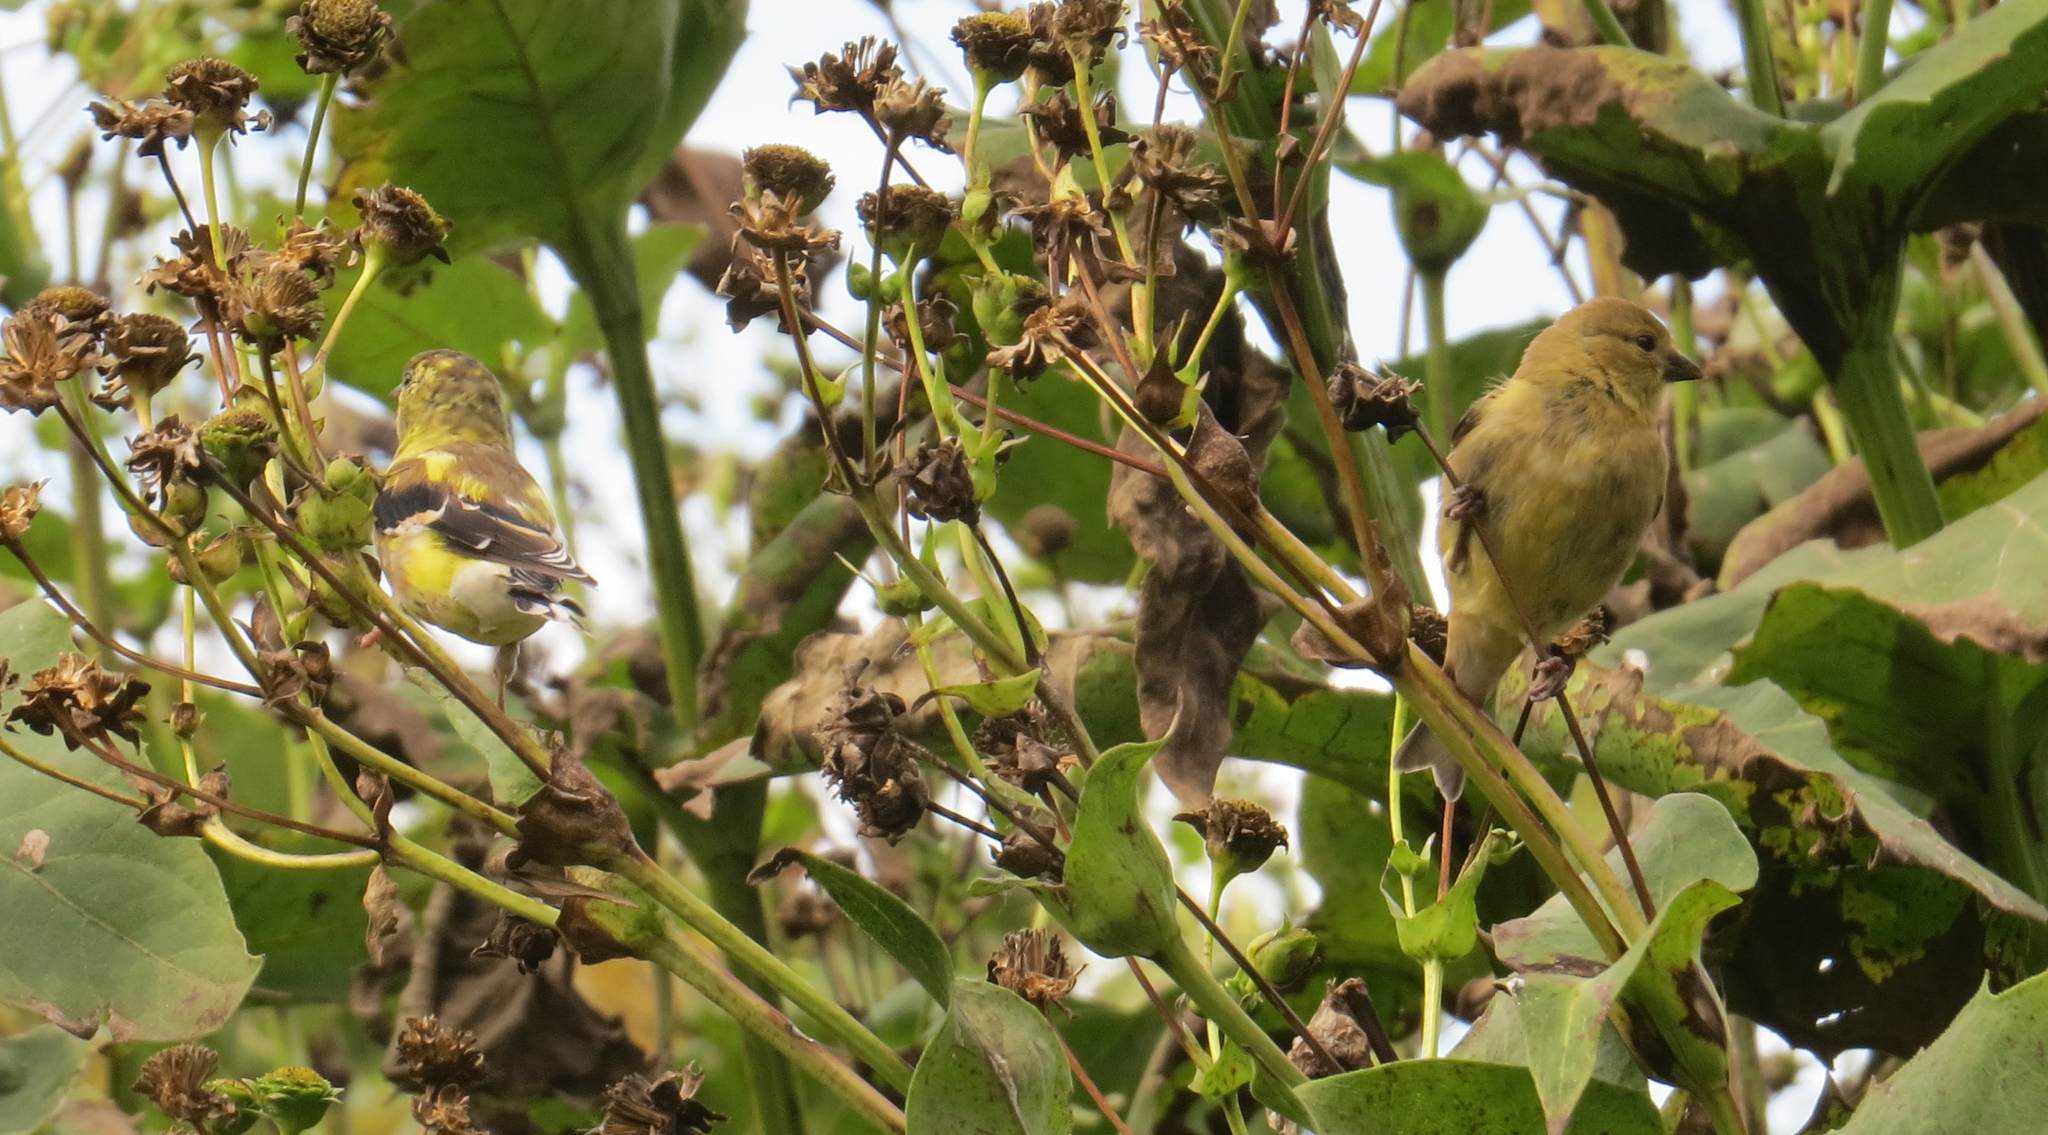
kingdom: Animalia
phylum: Chordata
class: Aves
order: Passeriformes
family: Fringillidae
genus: Spinus
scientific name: Spinus tristis
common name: American goldfinch
